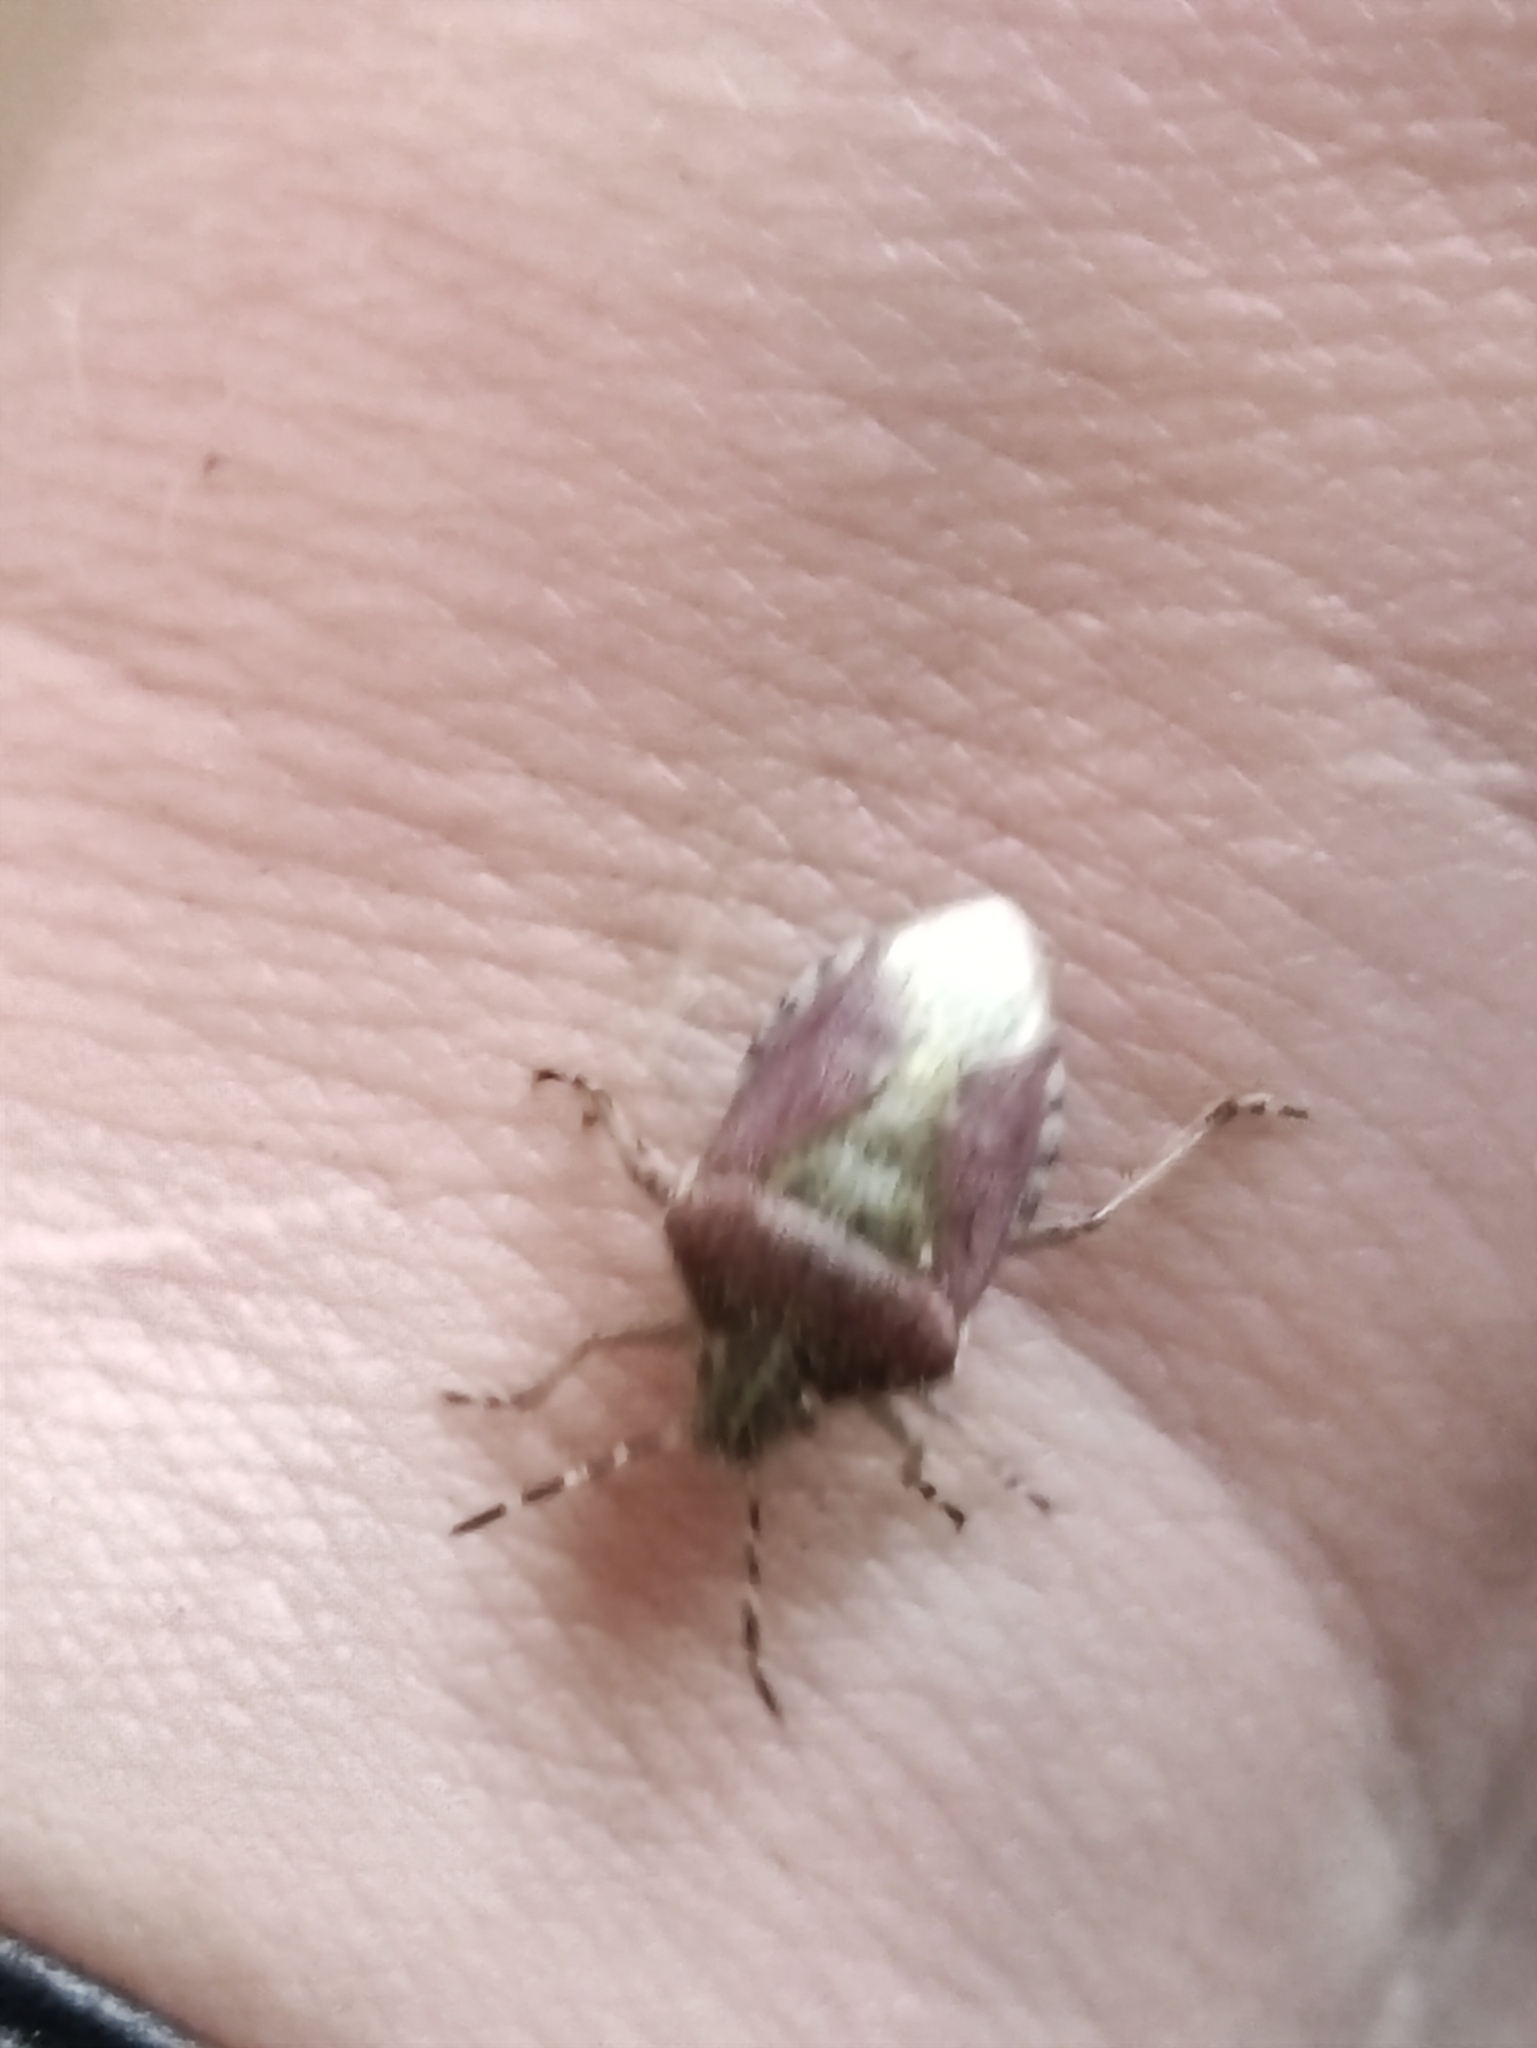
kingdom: Animalia
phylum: Arthropoda
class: Insecta
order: Hemiptera
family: Pentatomidae
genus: Dolycoris
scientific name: Dolycoris baccarum
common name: Sloe bug
